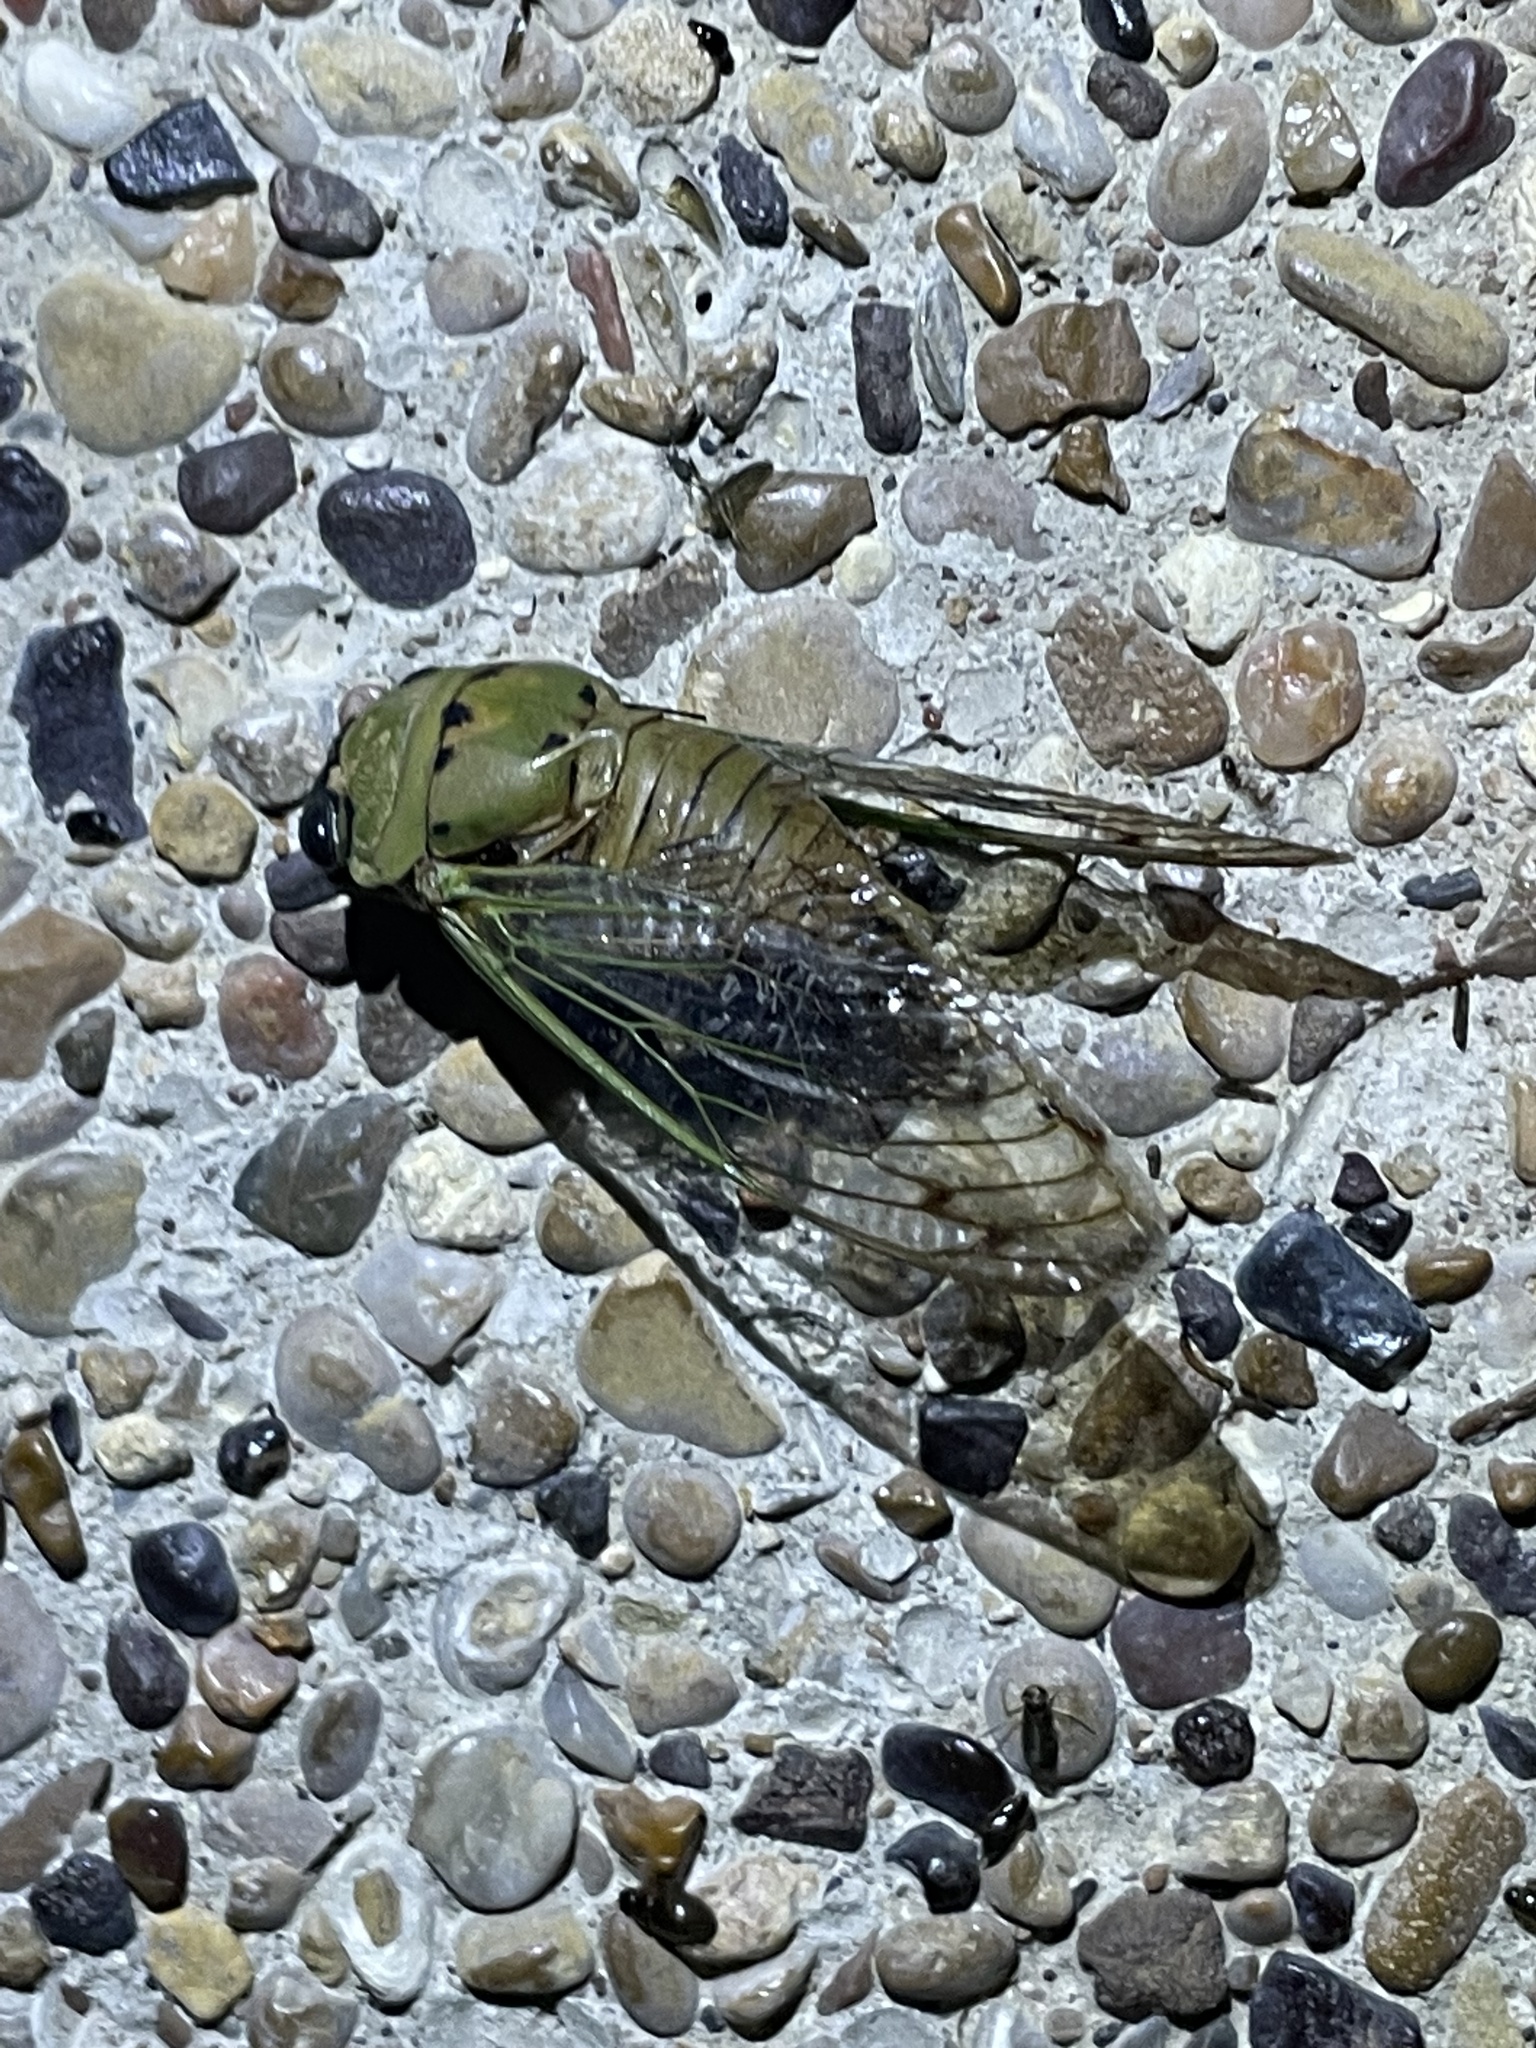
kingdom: Animalia
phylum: Arthropoda
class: Insecta
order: Hemiptera
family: Cicadidae
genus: Neotibicen
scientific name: Neotibicen superbus
